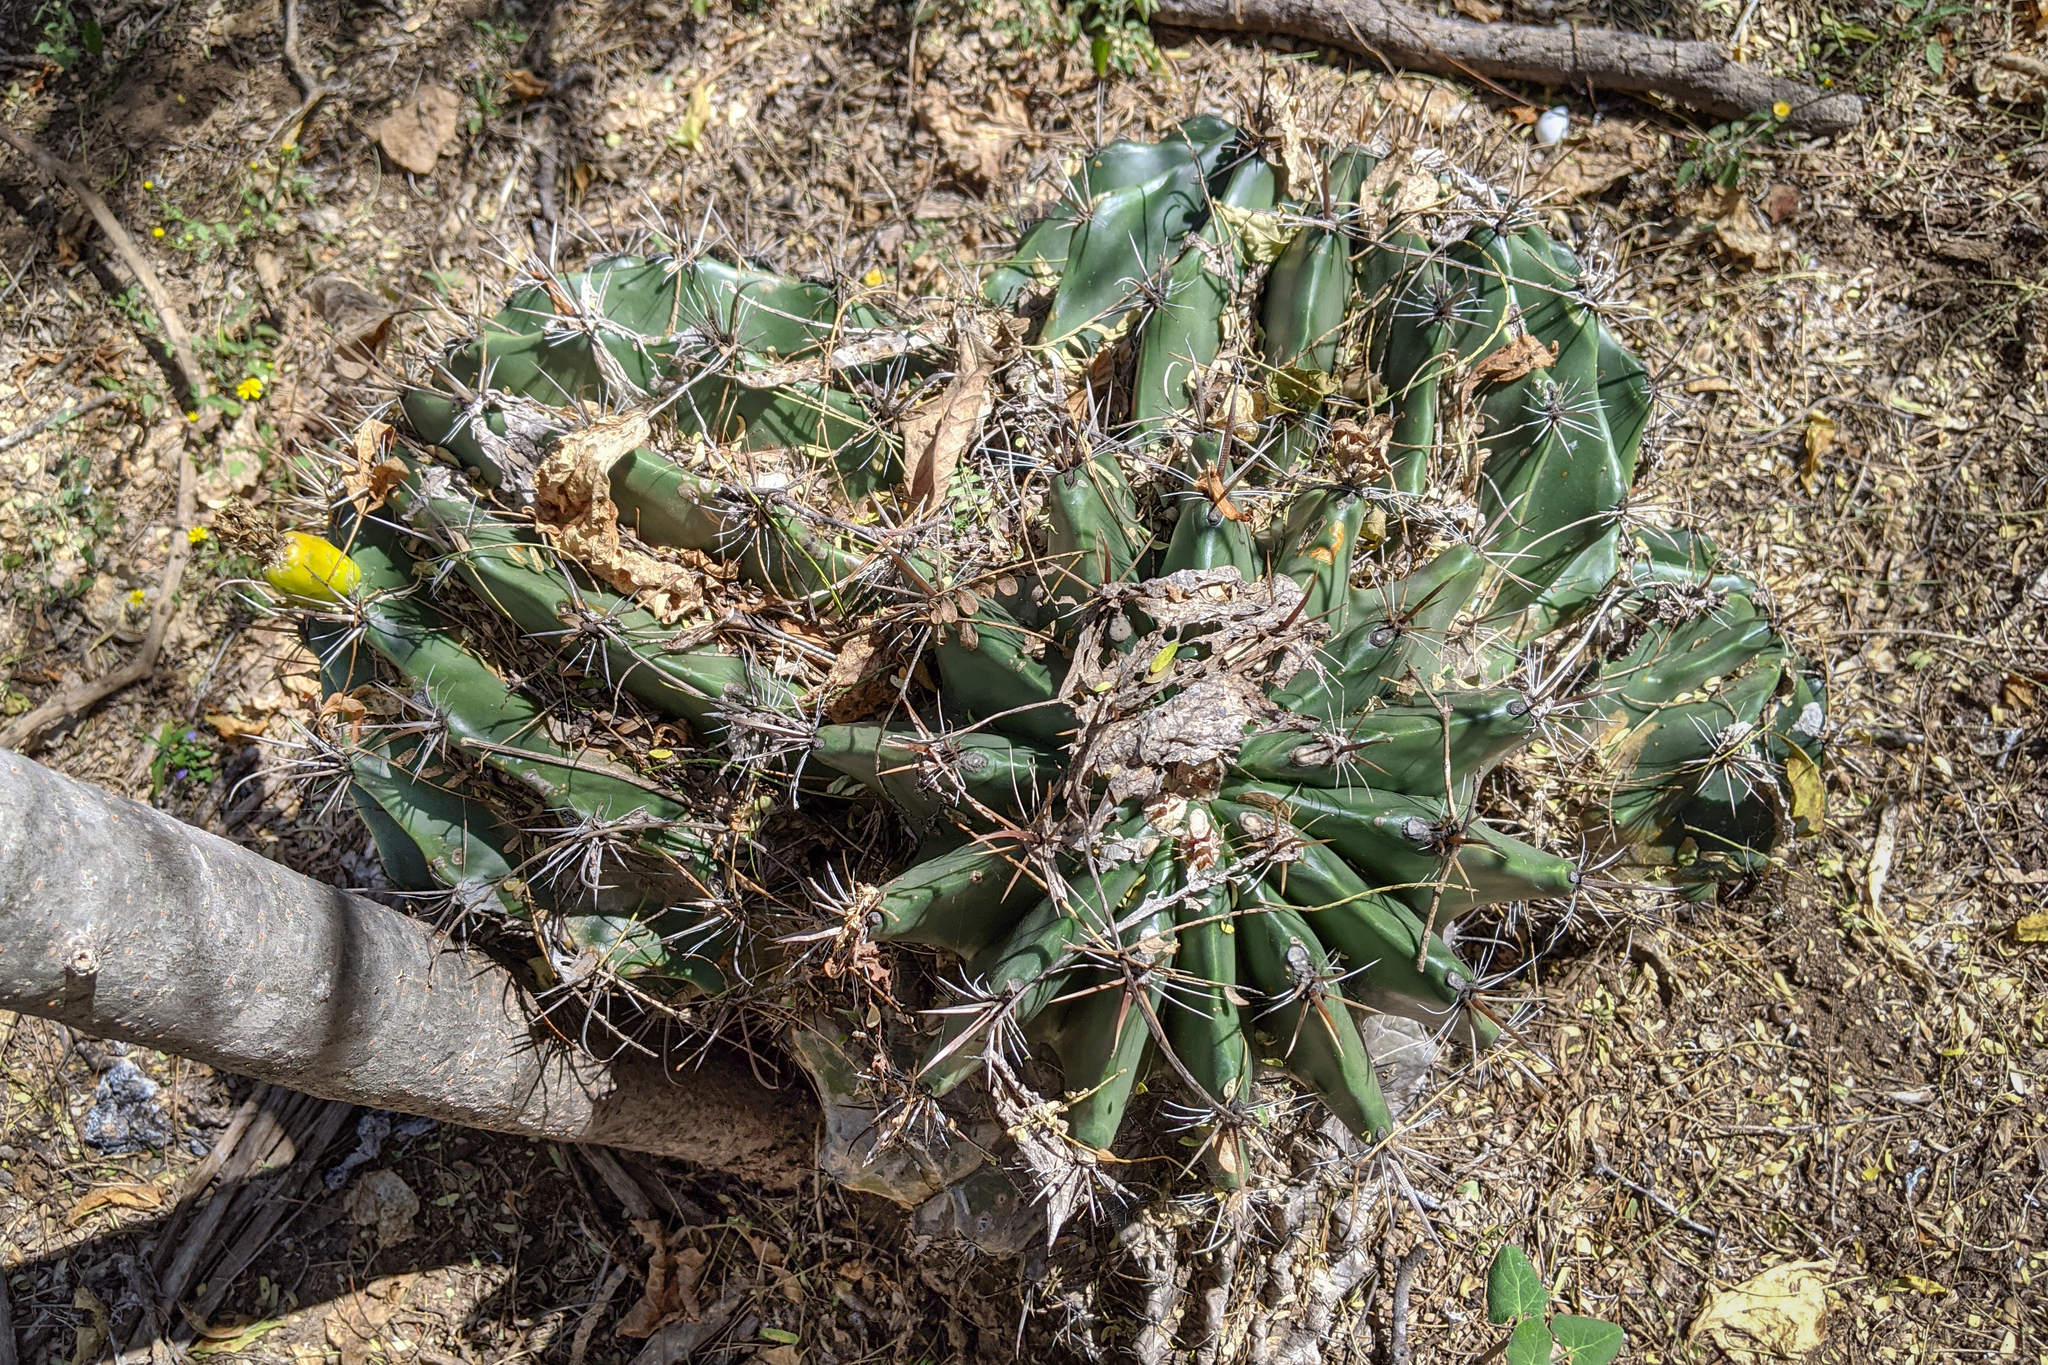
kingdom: Plantae
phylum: Tracheophyta
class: Magnoliopsida
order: Caryophyllales
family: Cactaceae
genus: Ferocactus
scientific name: Ferocactus townsendianus
